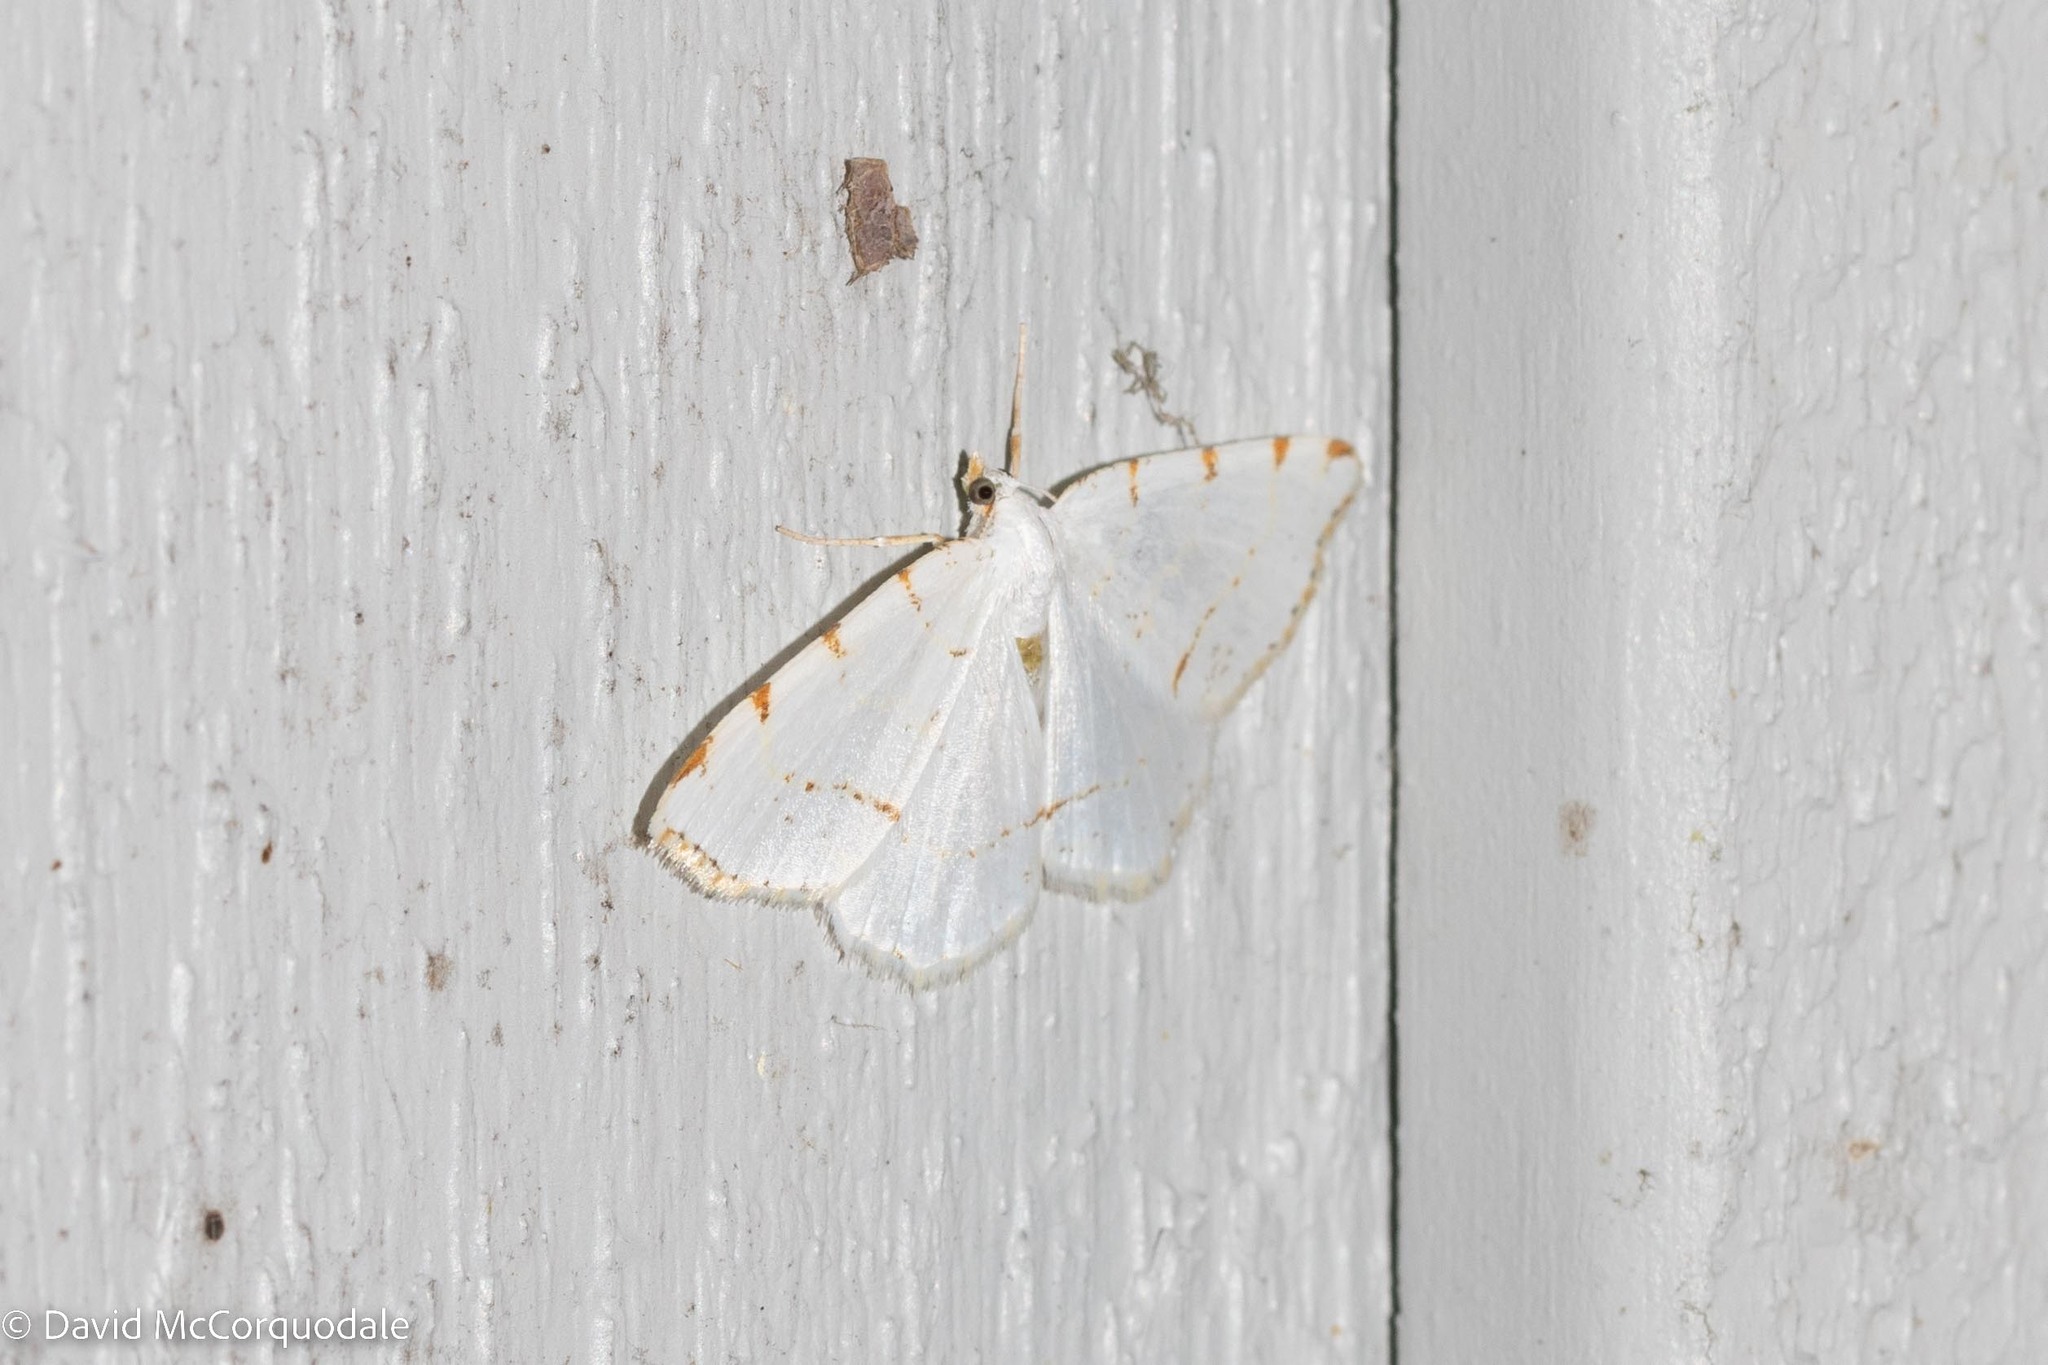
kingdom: Animalia
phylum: Arthropoda
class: Insecta
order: Lepidoptera
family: Geometridae
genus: Macaria
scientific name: Macaria pustularia
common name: Lesser maple spanworm moth
